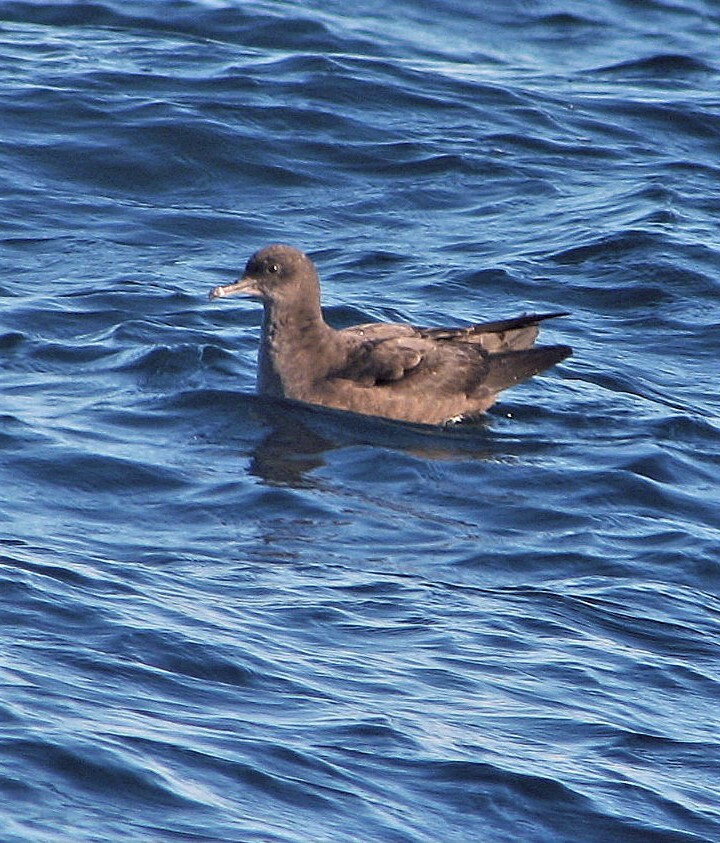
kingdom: Animalia
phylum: Chordata
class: Aves
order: Procellariiformes
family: Procellariidae
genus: Puffinus
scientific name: Puffinus griseus
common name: Sooty shearwater
